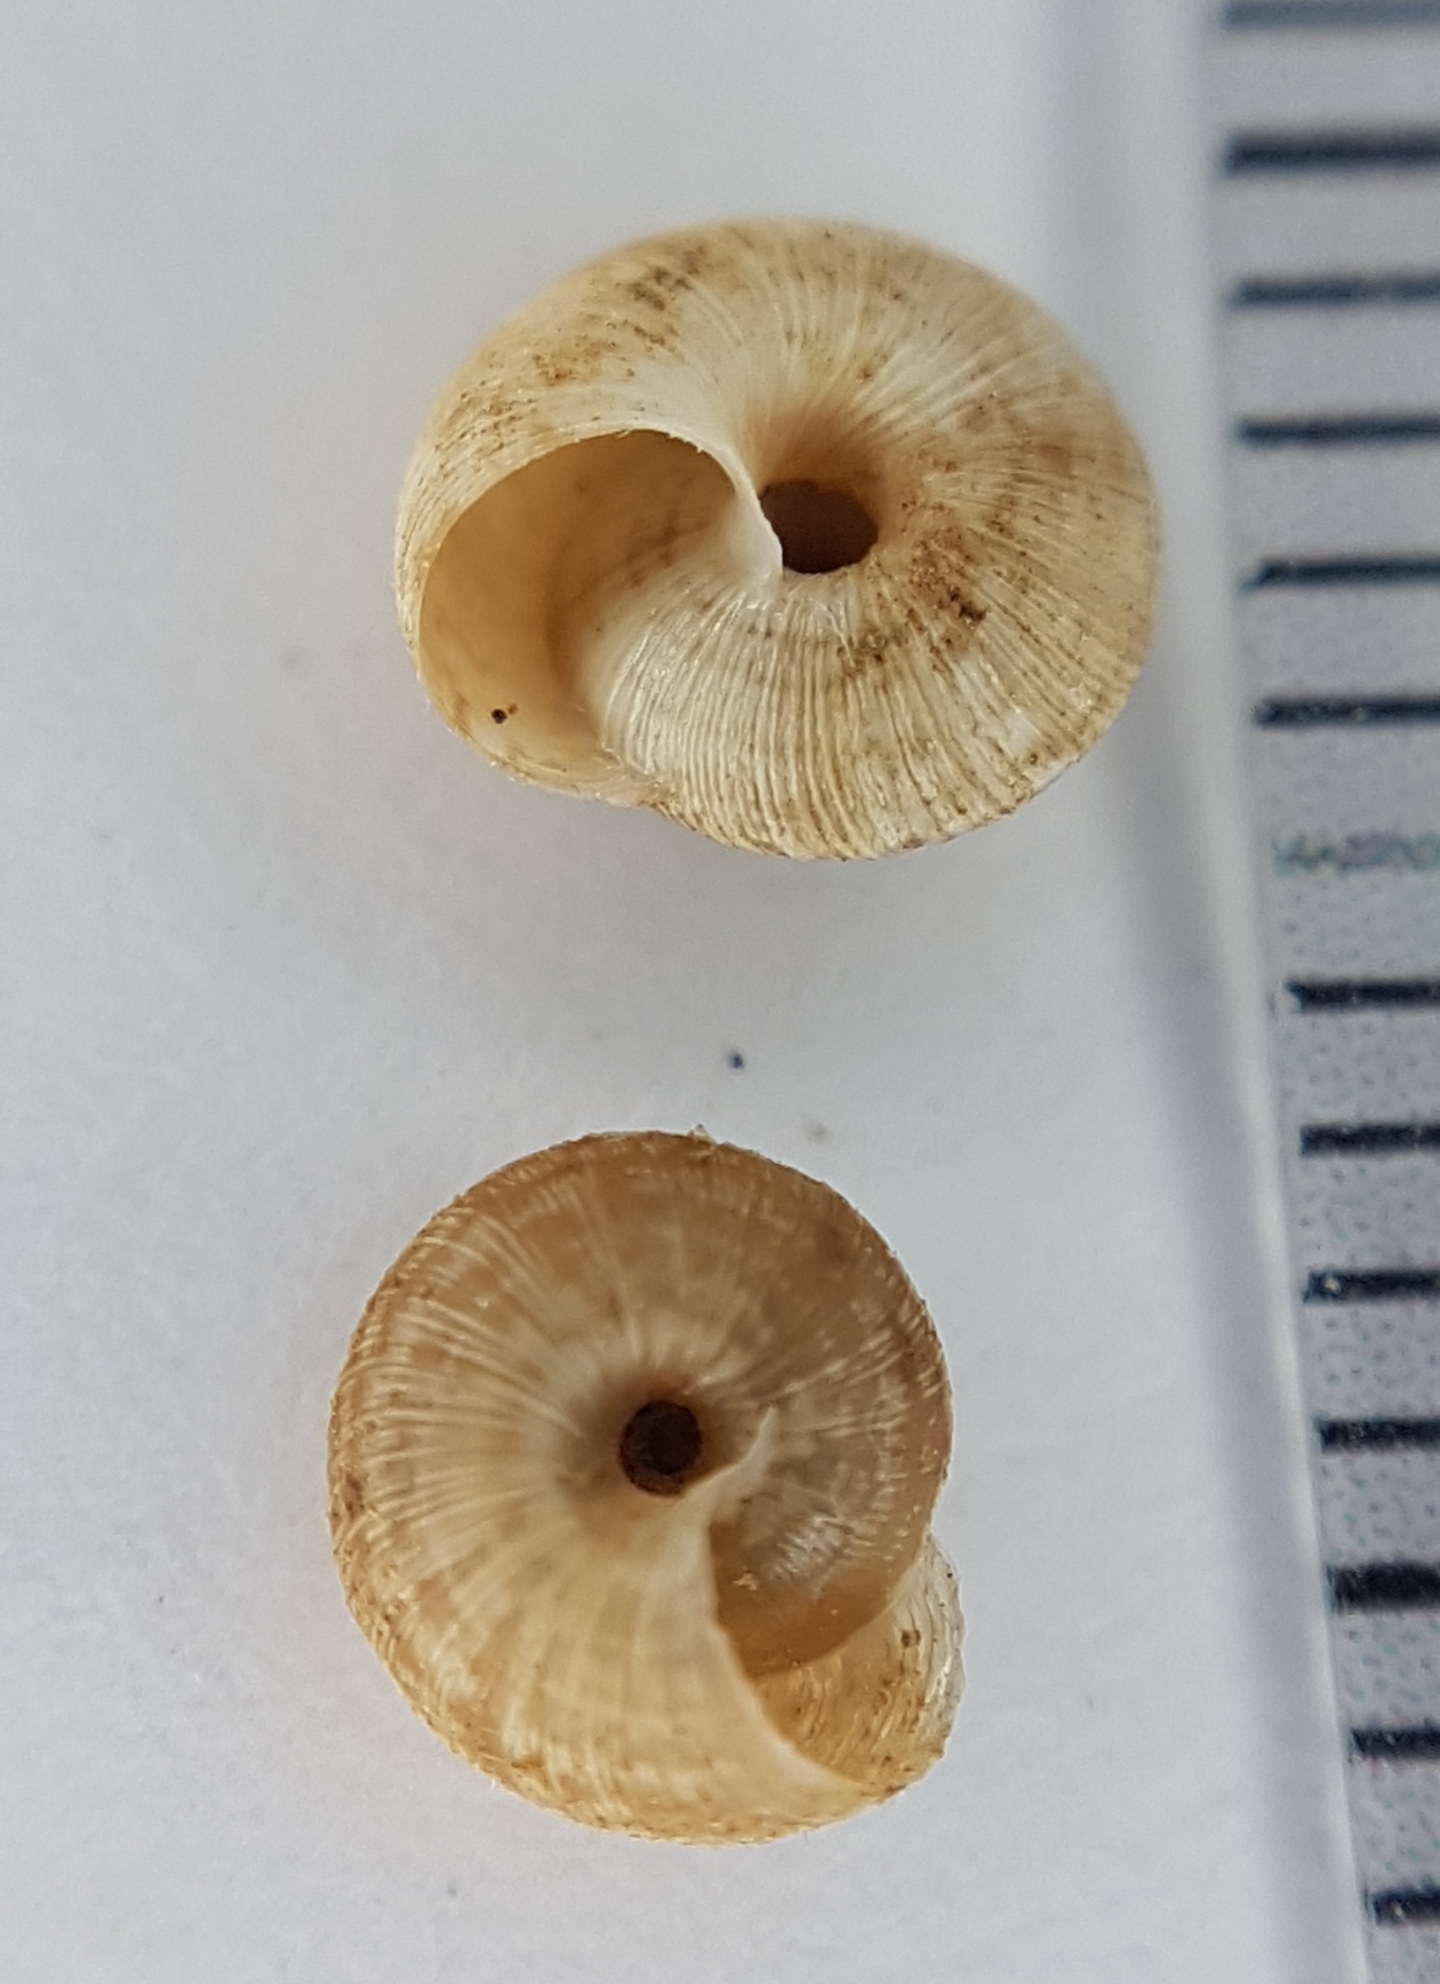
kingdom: Animalia
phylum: Mollusca
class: Gastropoda
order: Stylommatophora
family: Geomitridae
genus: Xerotricha
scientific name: Xerotricha conspurcata
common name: Snail
